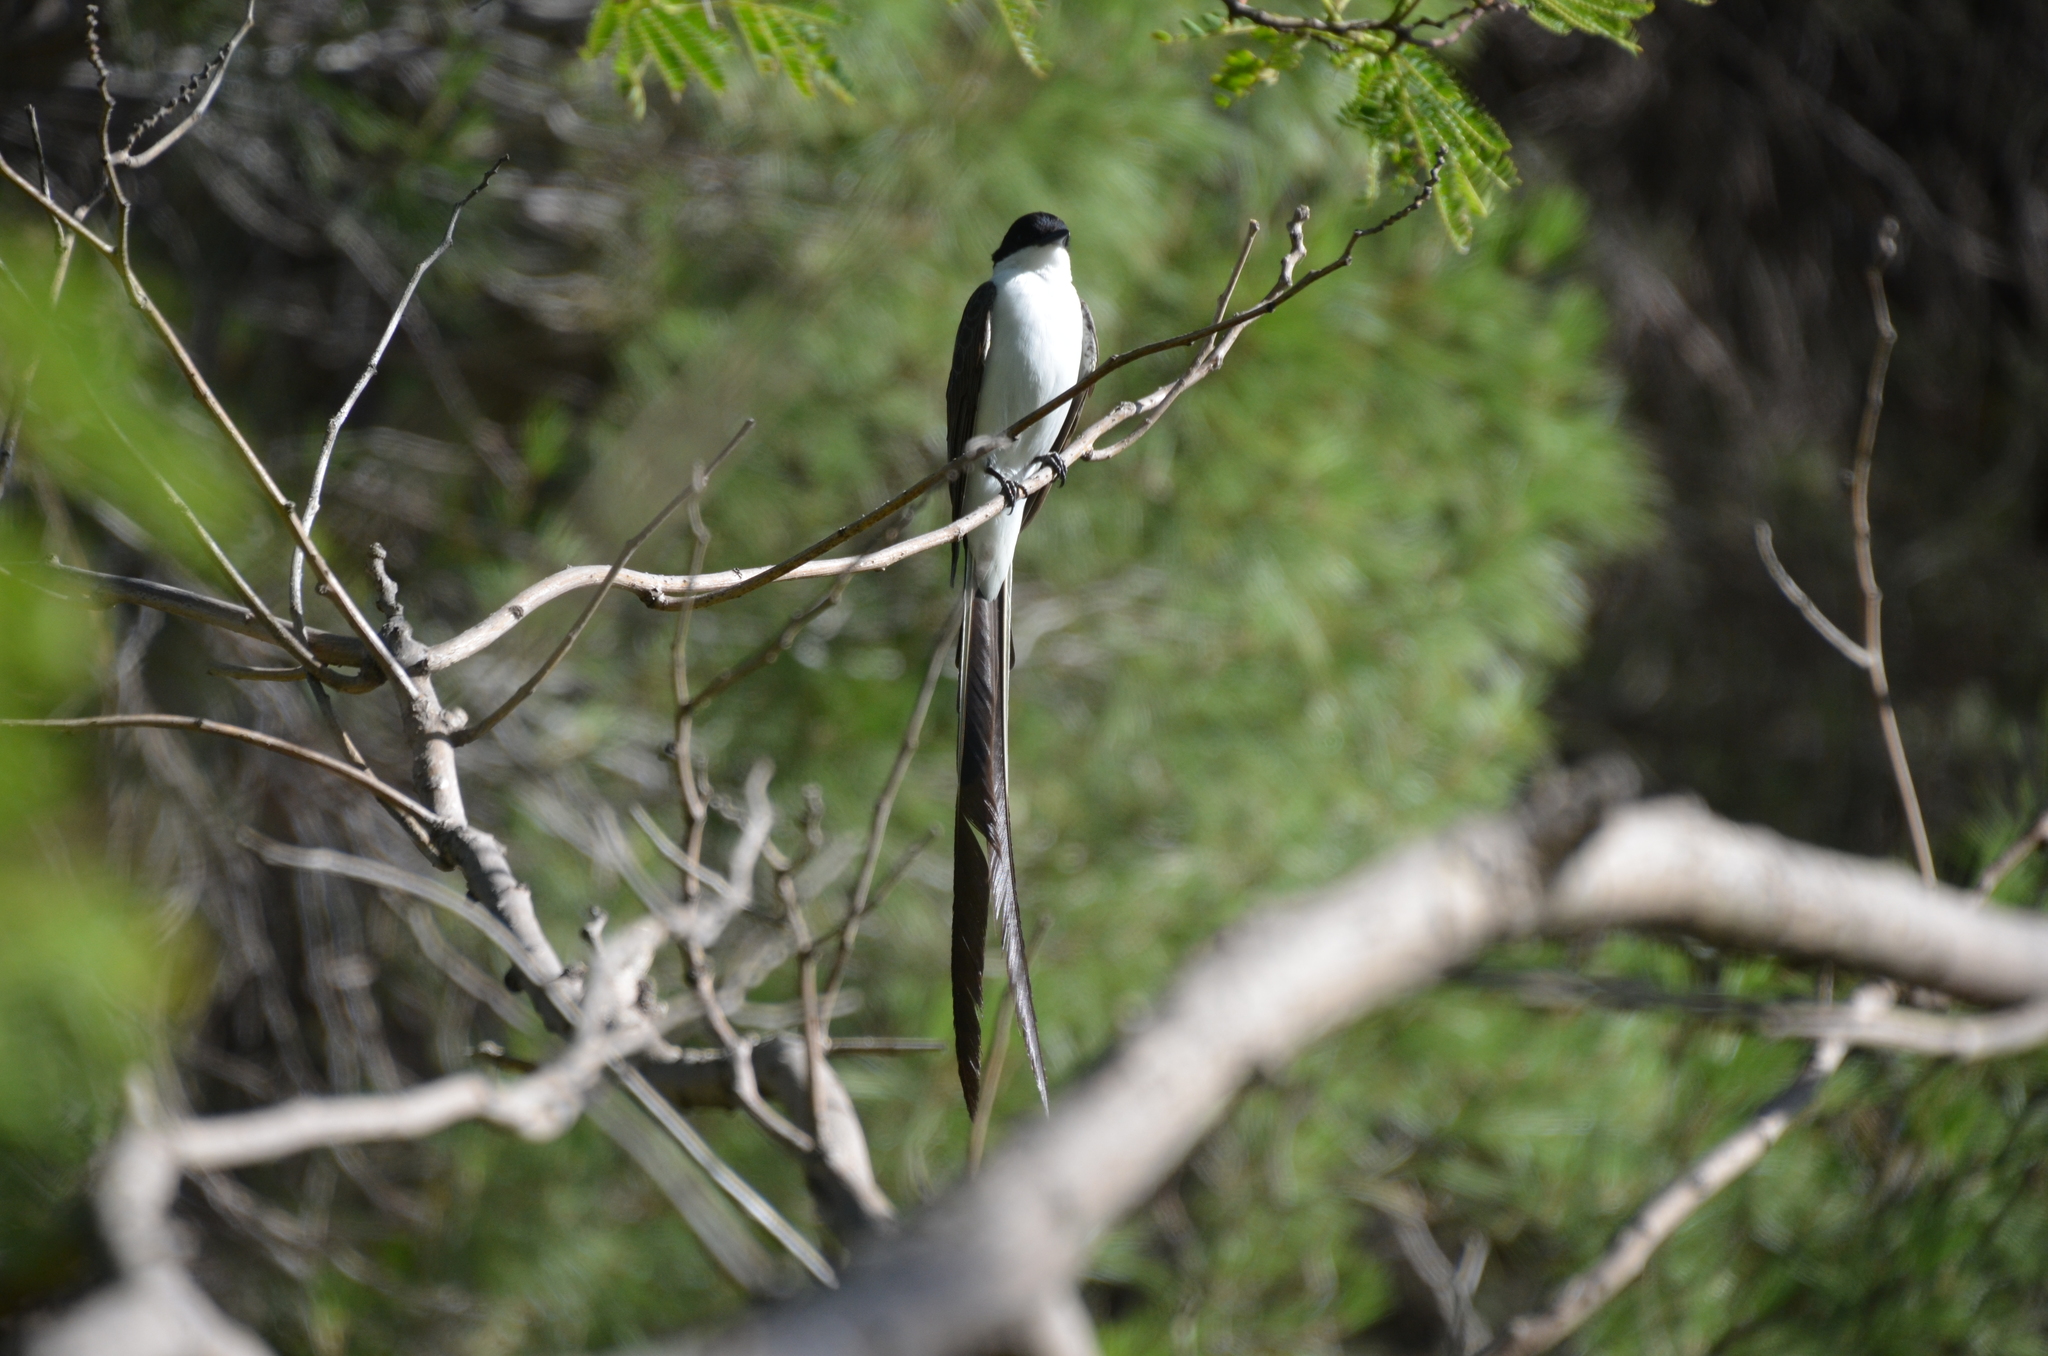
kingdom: Animalia
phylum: Chordata
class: Aves
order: Passeriformes
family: Tyrannidae
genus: Tyrannus
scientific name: Tyrannus savana
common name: Fork-tailed flycatcher
